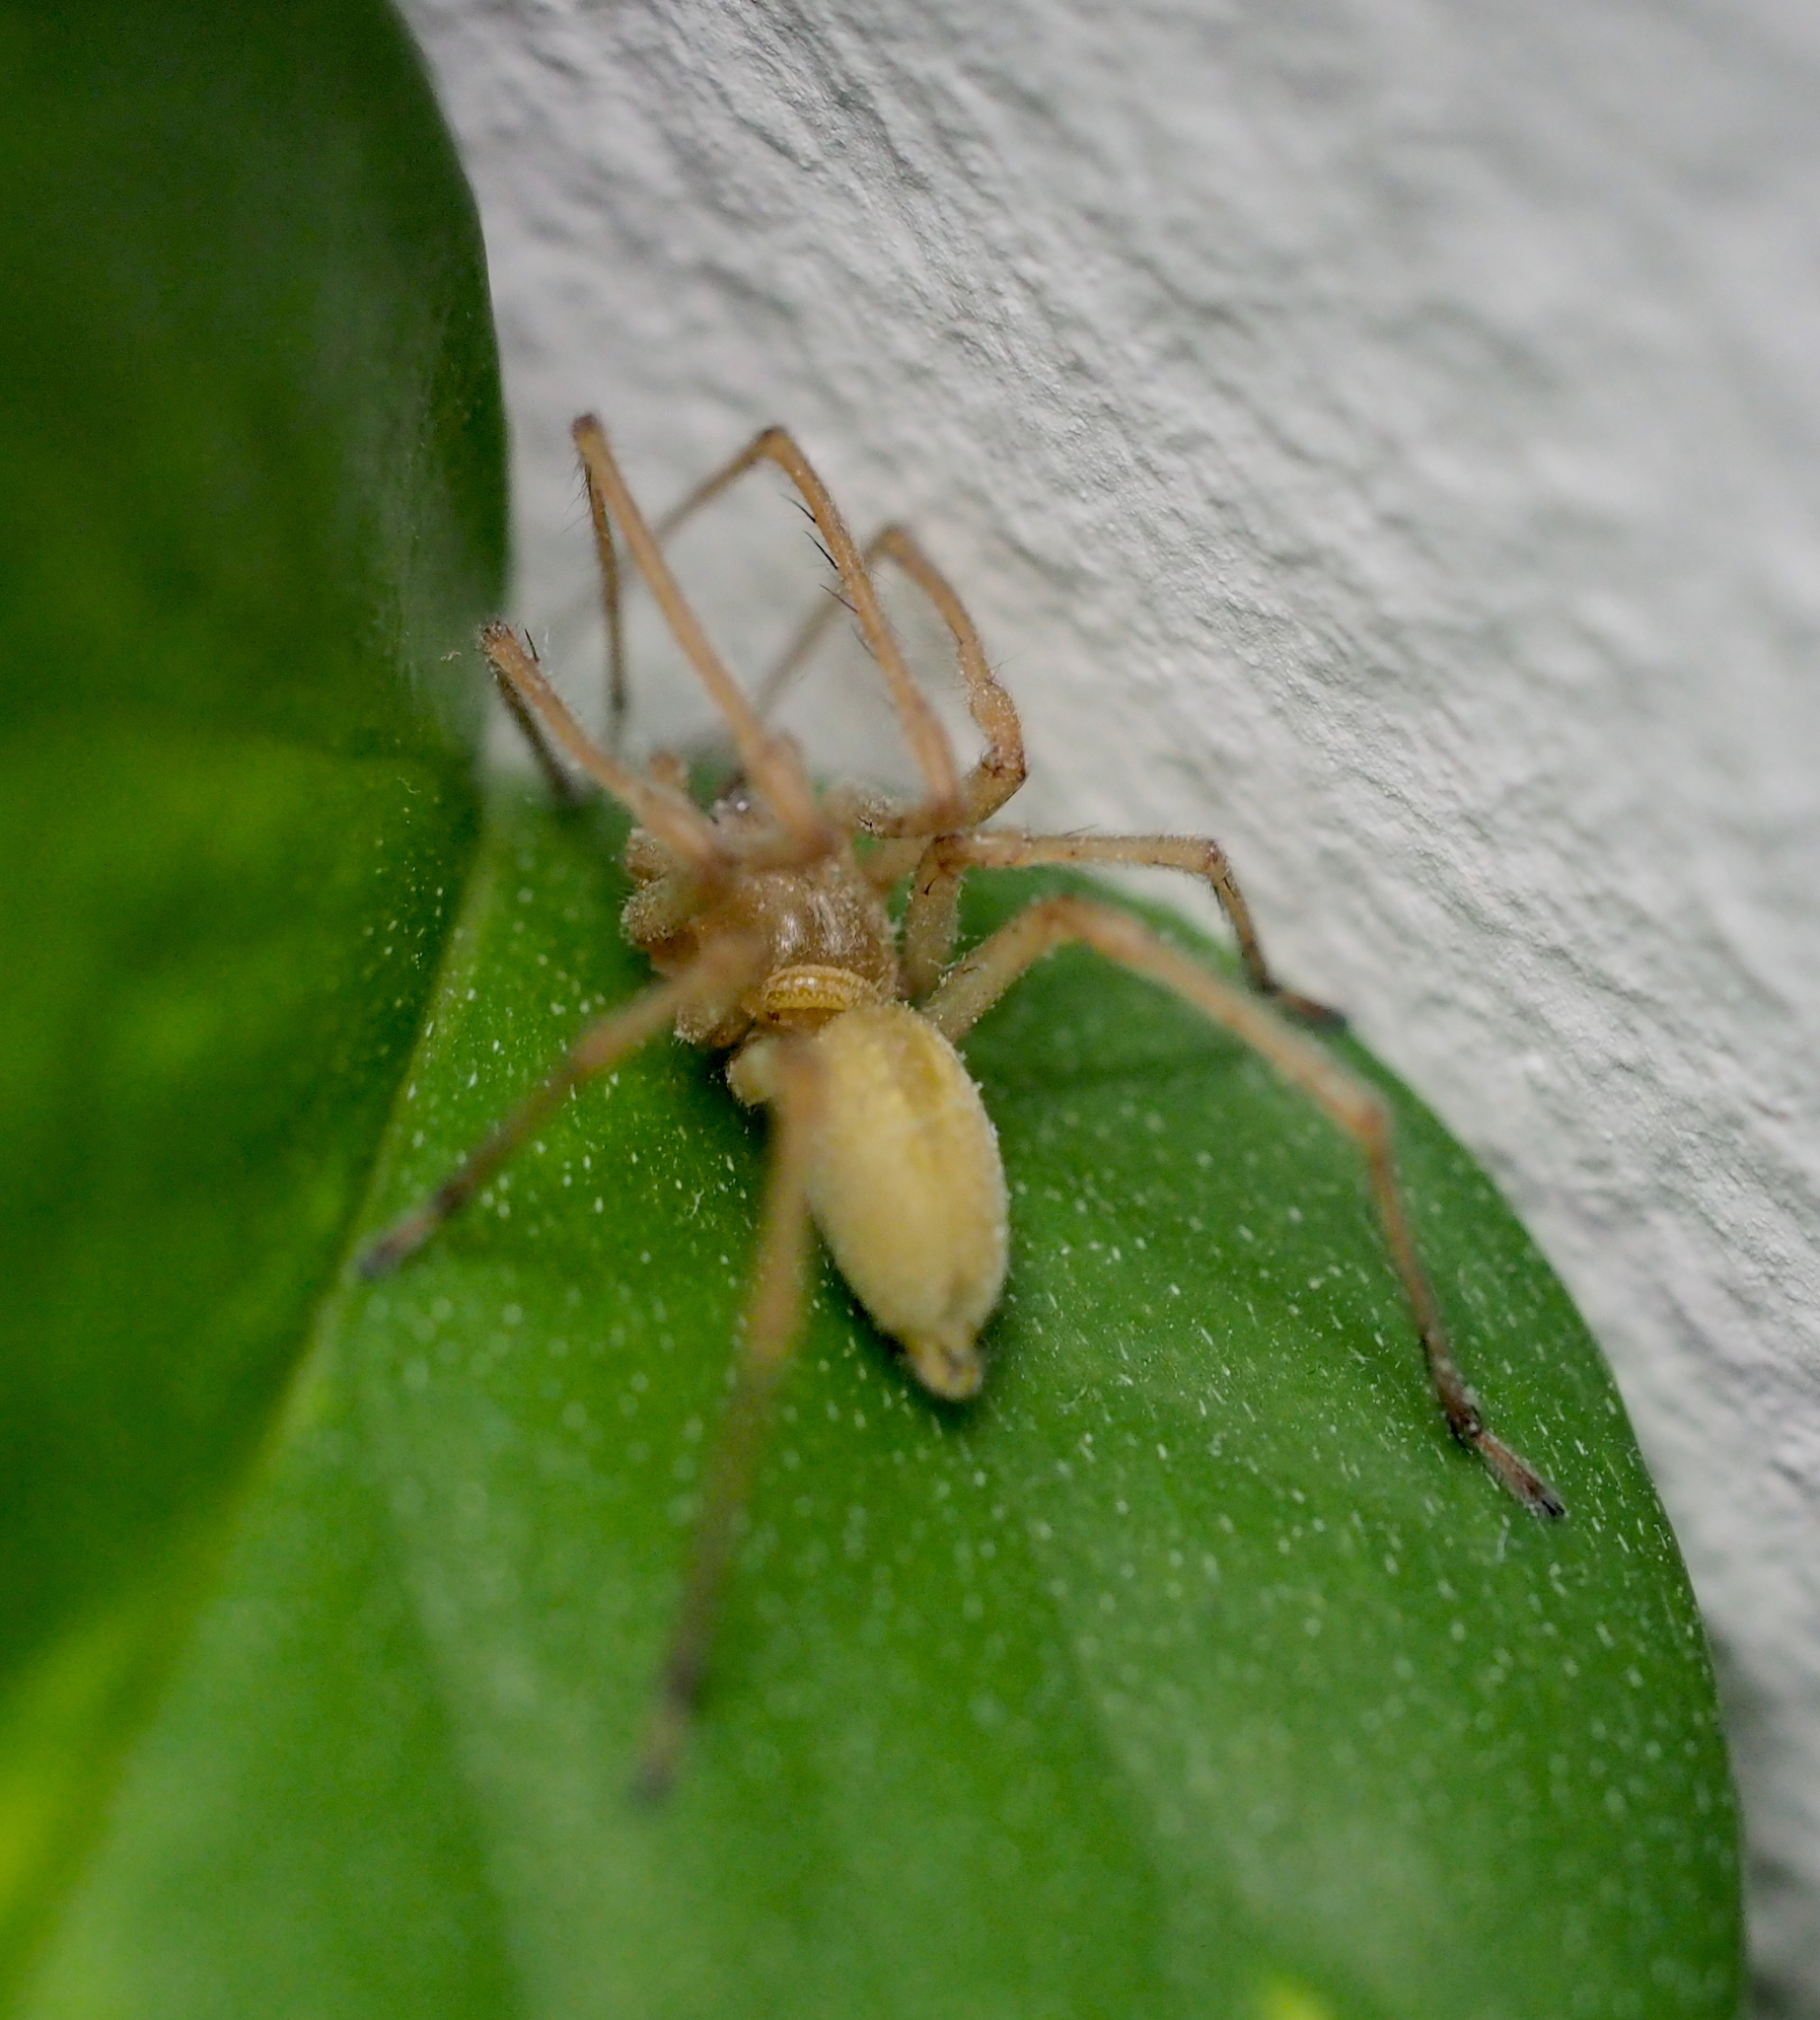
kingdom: Animalia
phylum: Arthropoda
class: Arachnida
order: Araneae
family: Cheiracanthiidae
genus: Cheiracanthium
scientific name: Cheiracanthium mildei
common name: Northern yellow sac spider
